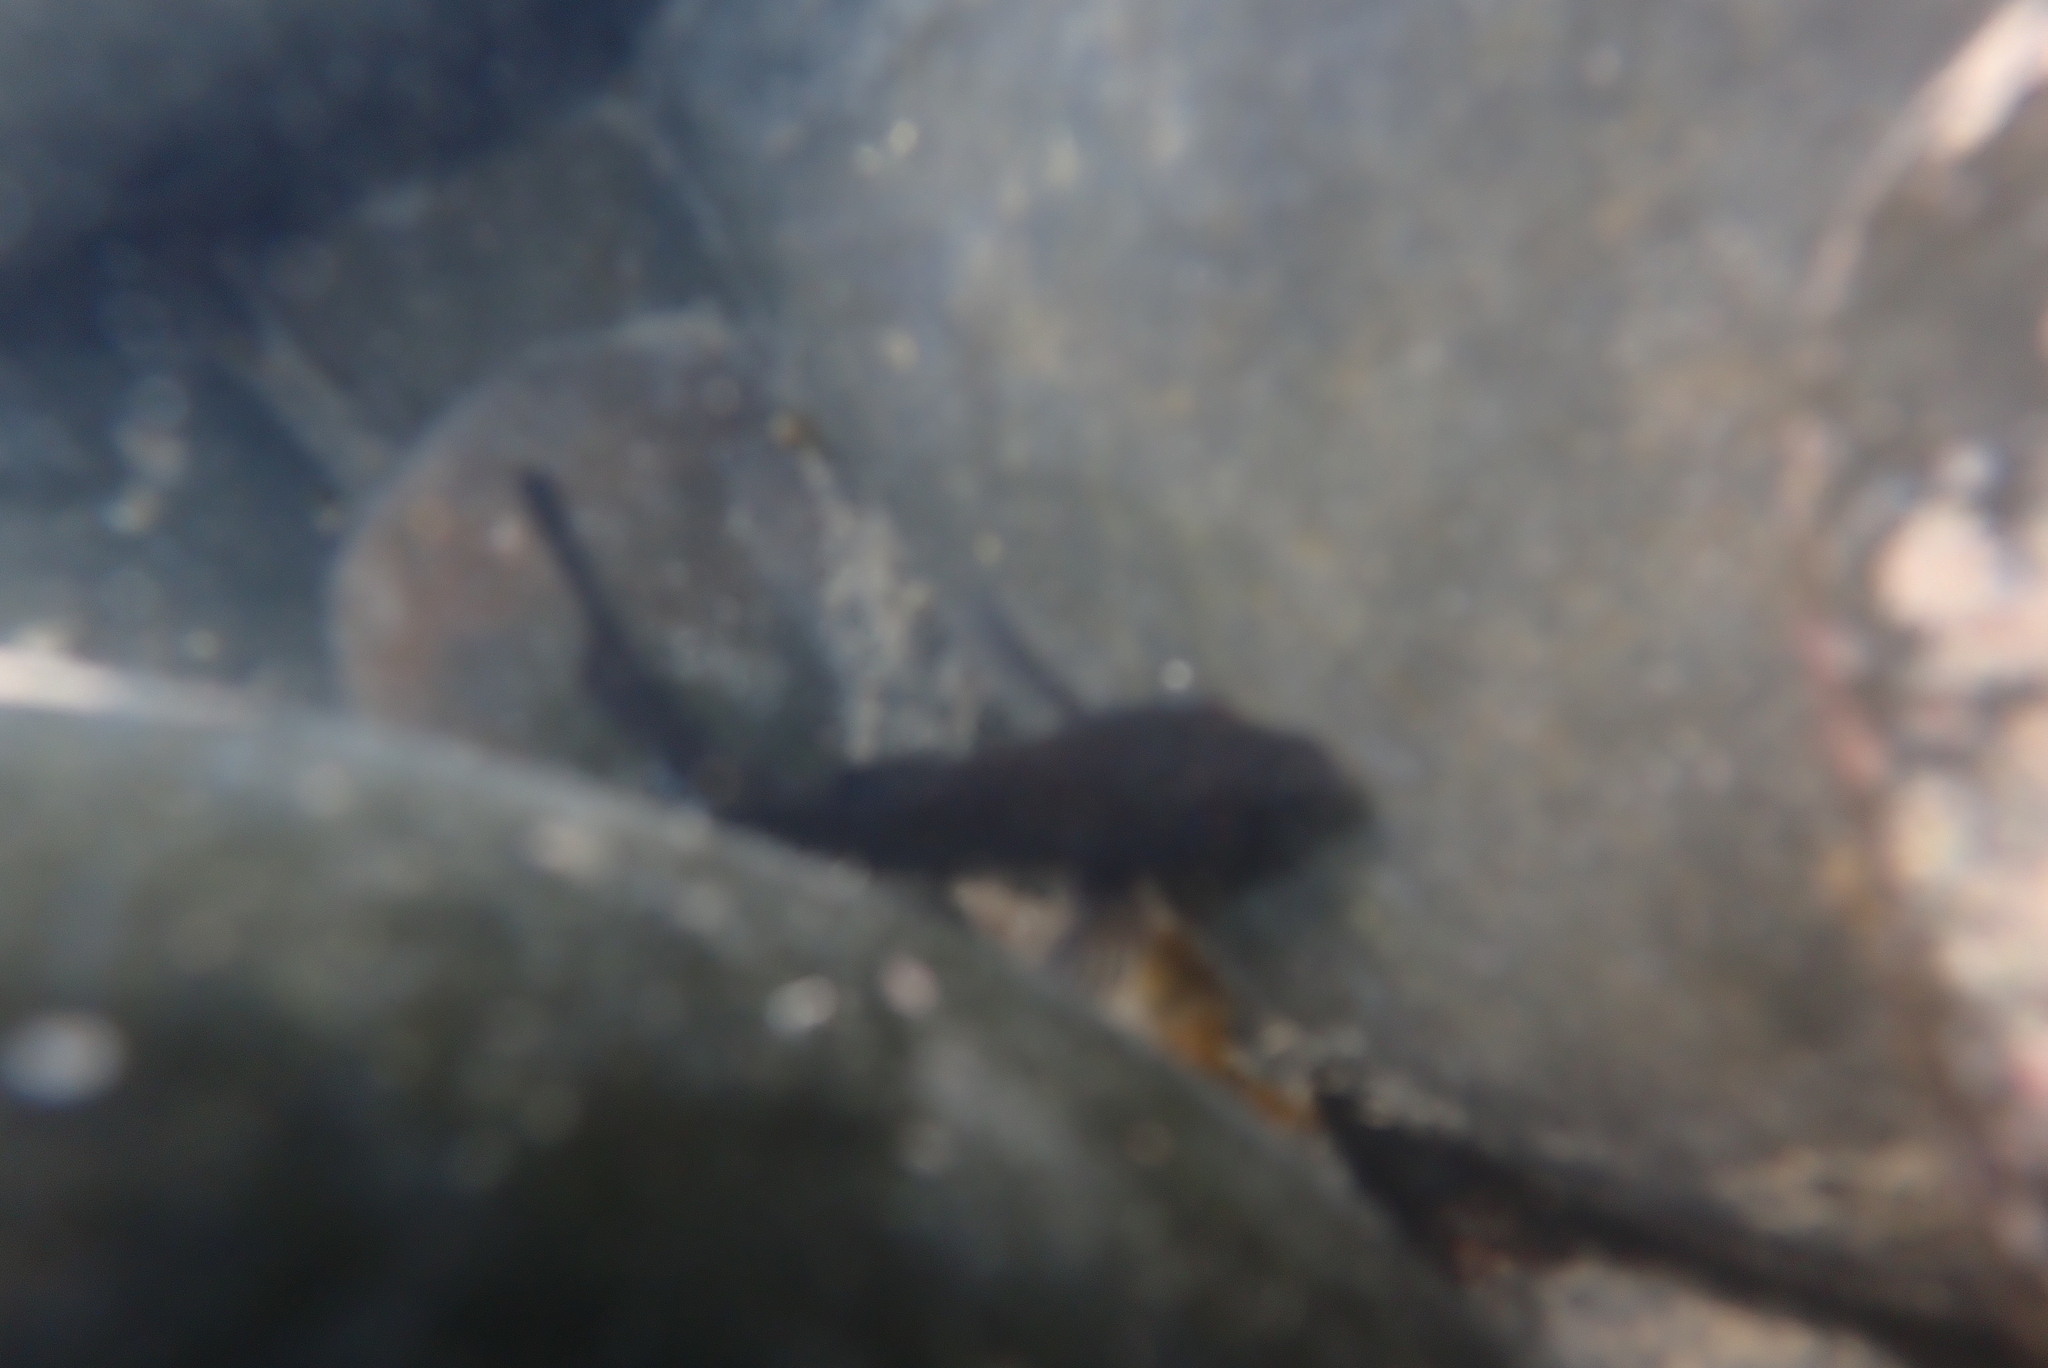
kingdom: Animalia
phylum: Chordata
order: Perciformes
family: Tripterygiidae
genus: Forsterygion
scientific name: Forsterygion lapillum
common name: Common triplefin
